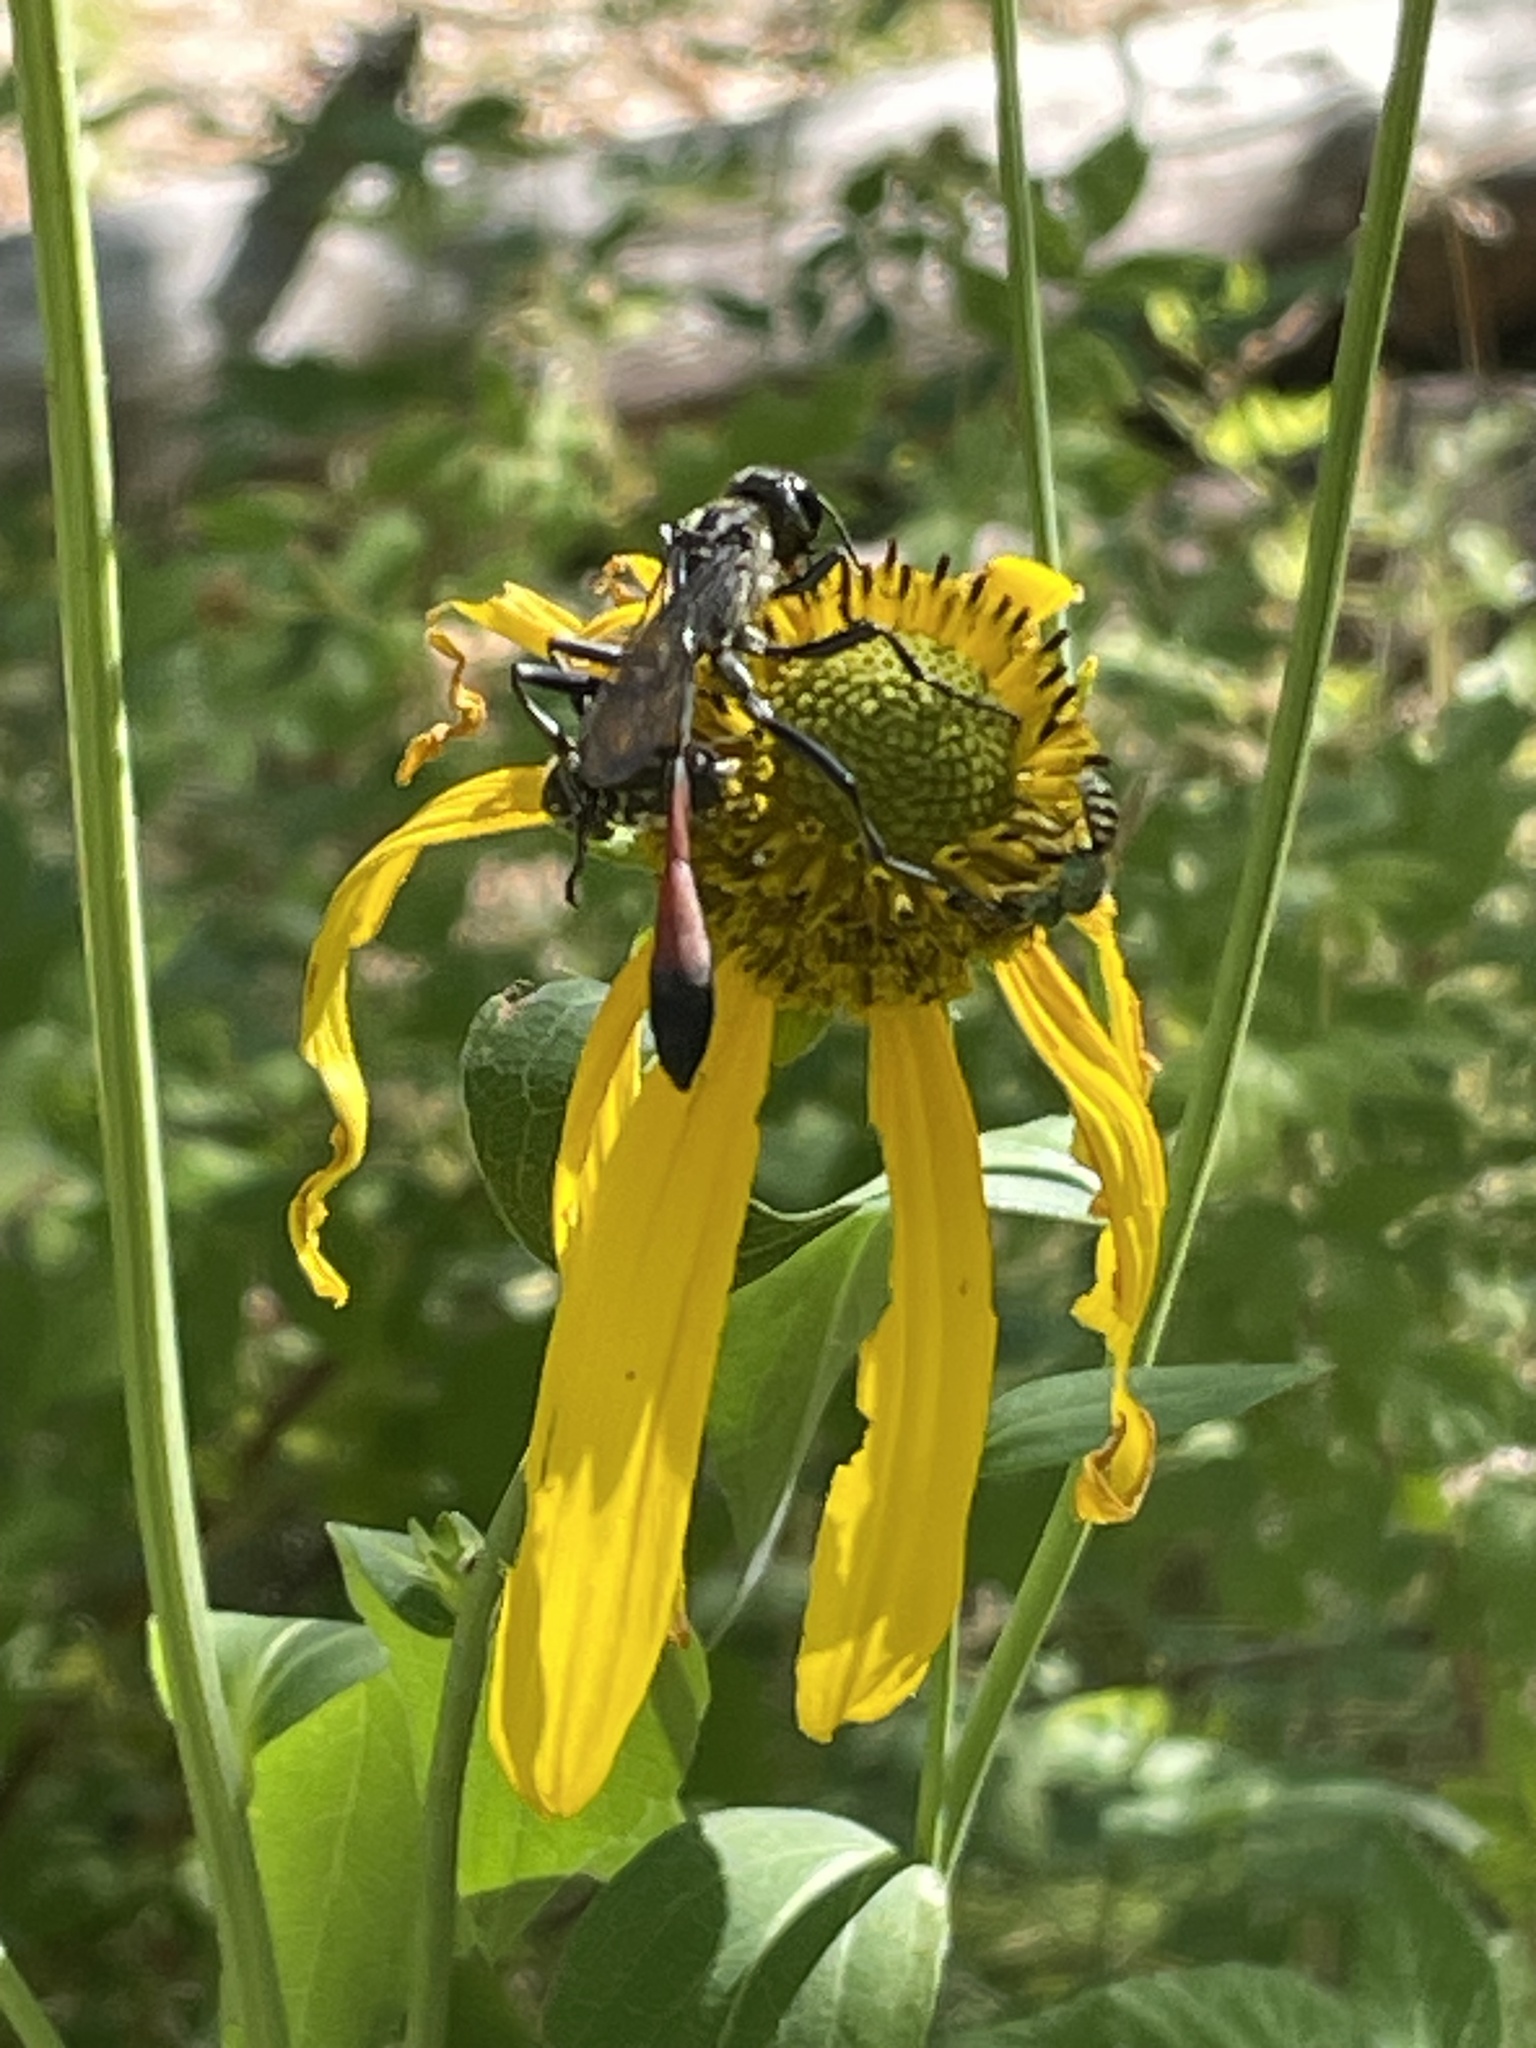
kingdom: Plantae
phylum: Tracheophyta
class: Magnoliopsida
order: Asterales
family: Asteraceae
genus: Rudbeckia
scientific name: Rudbeckia laciniata
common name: Coneflower
